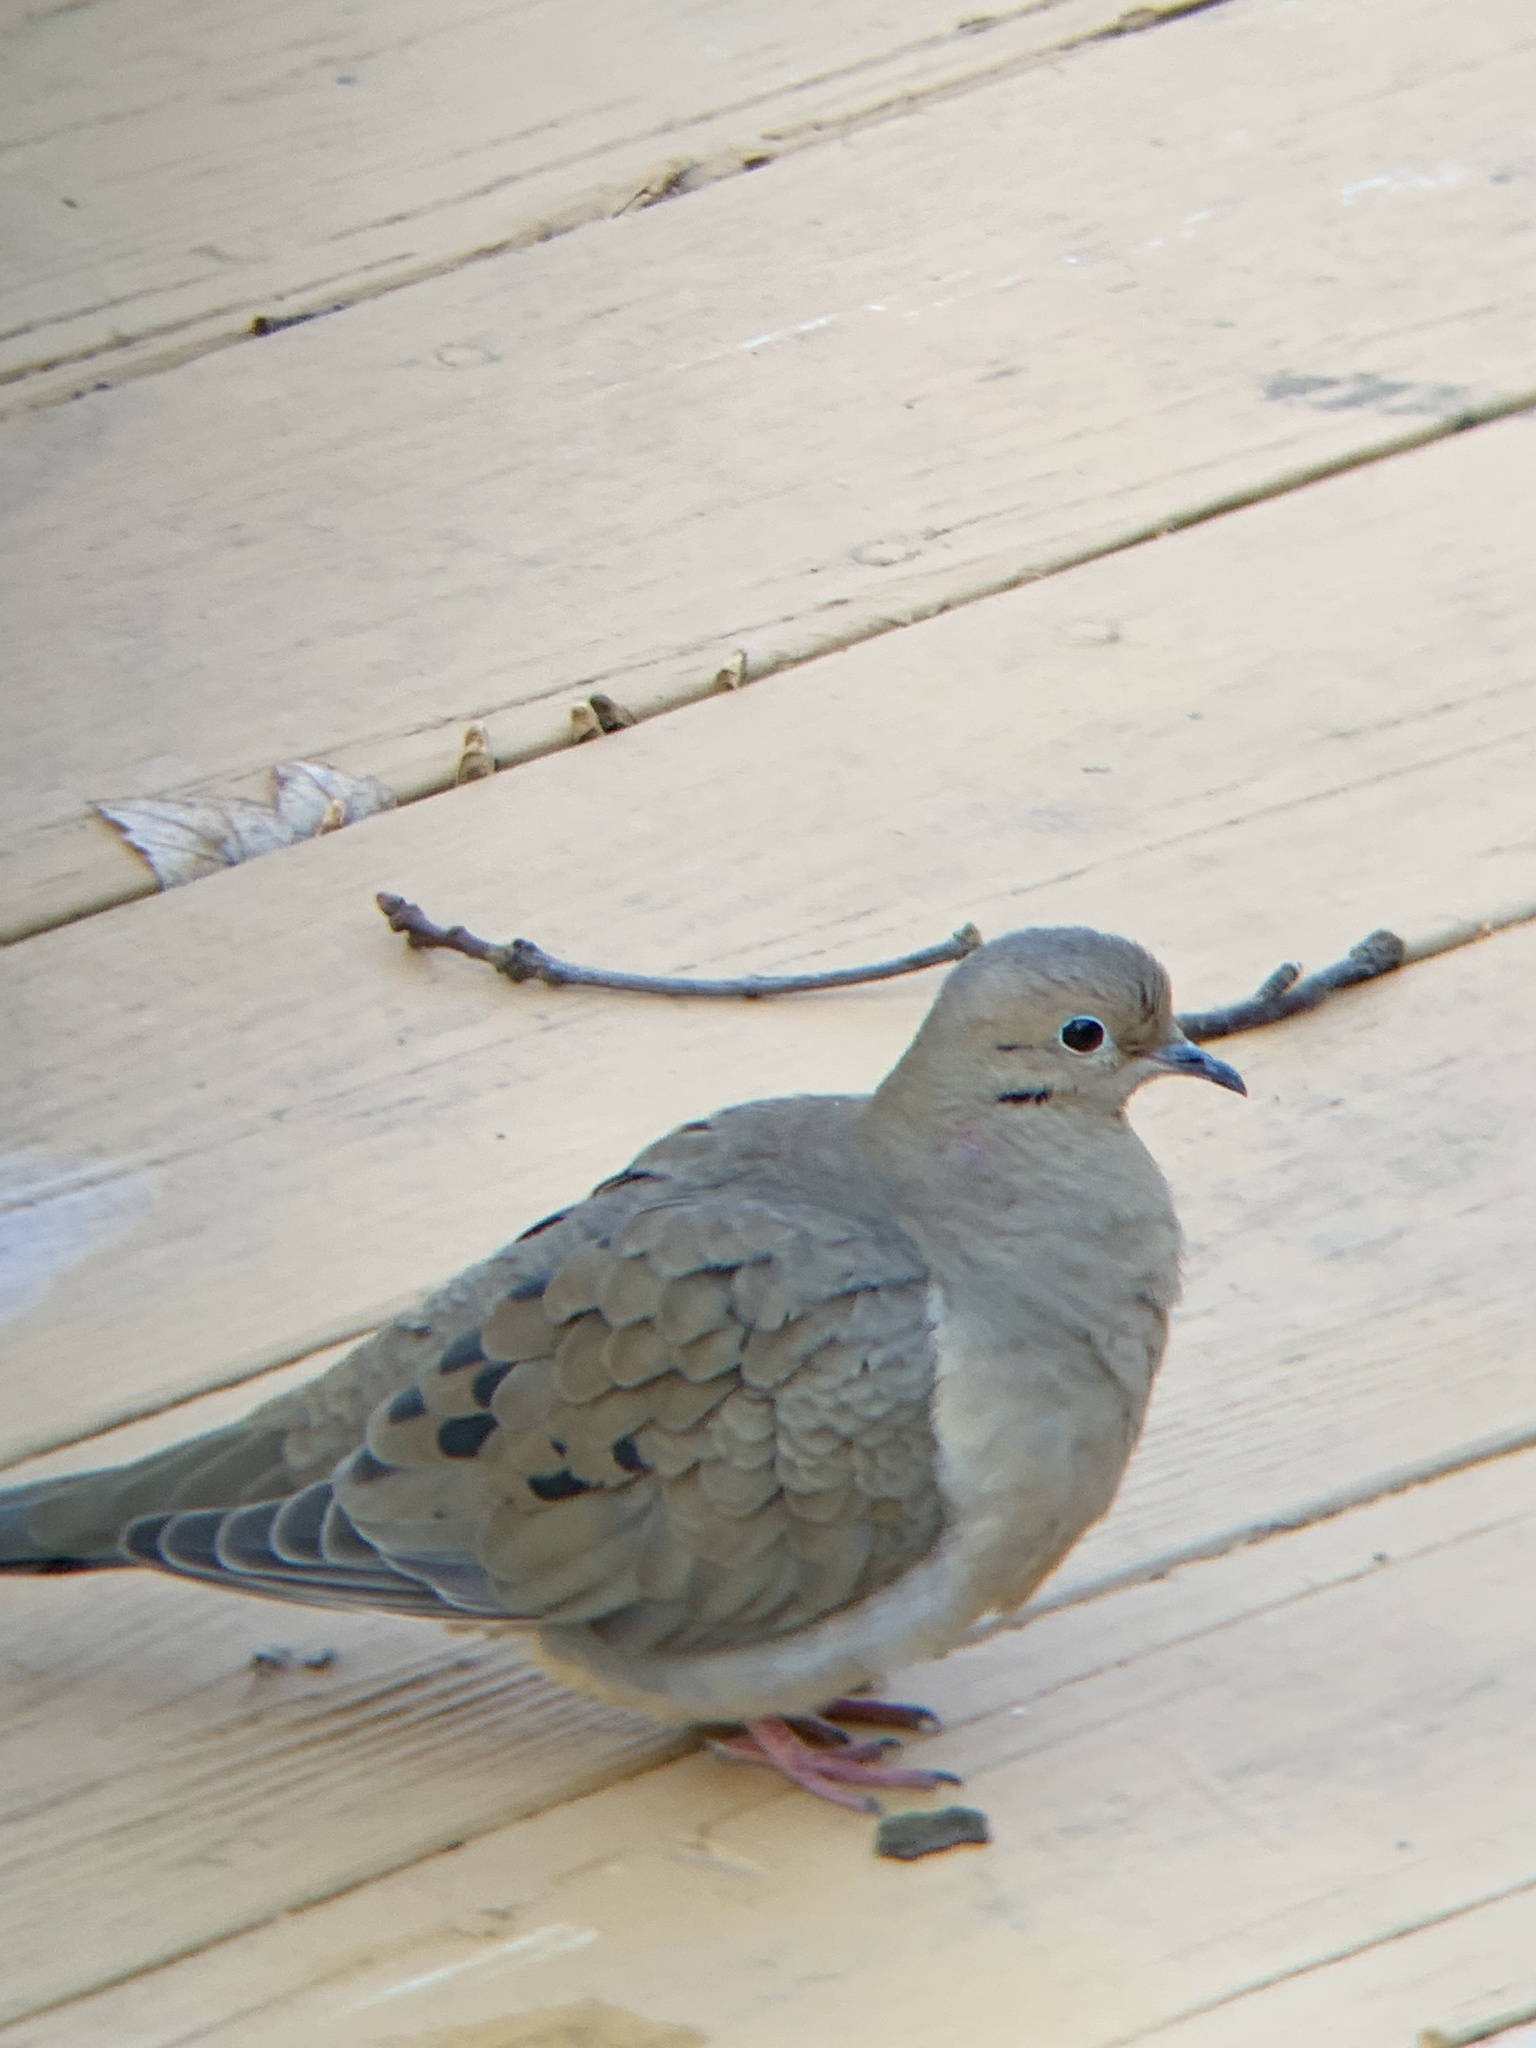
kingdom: Animalia
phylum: Chordata
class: Aves
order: Columbiformes
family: Columbidae
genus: Zenaida
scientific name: Zenaida macroura
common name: Mourning dove
